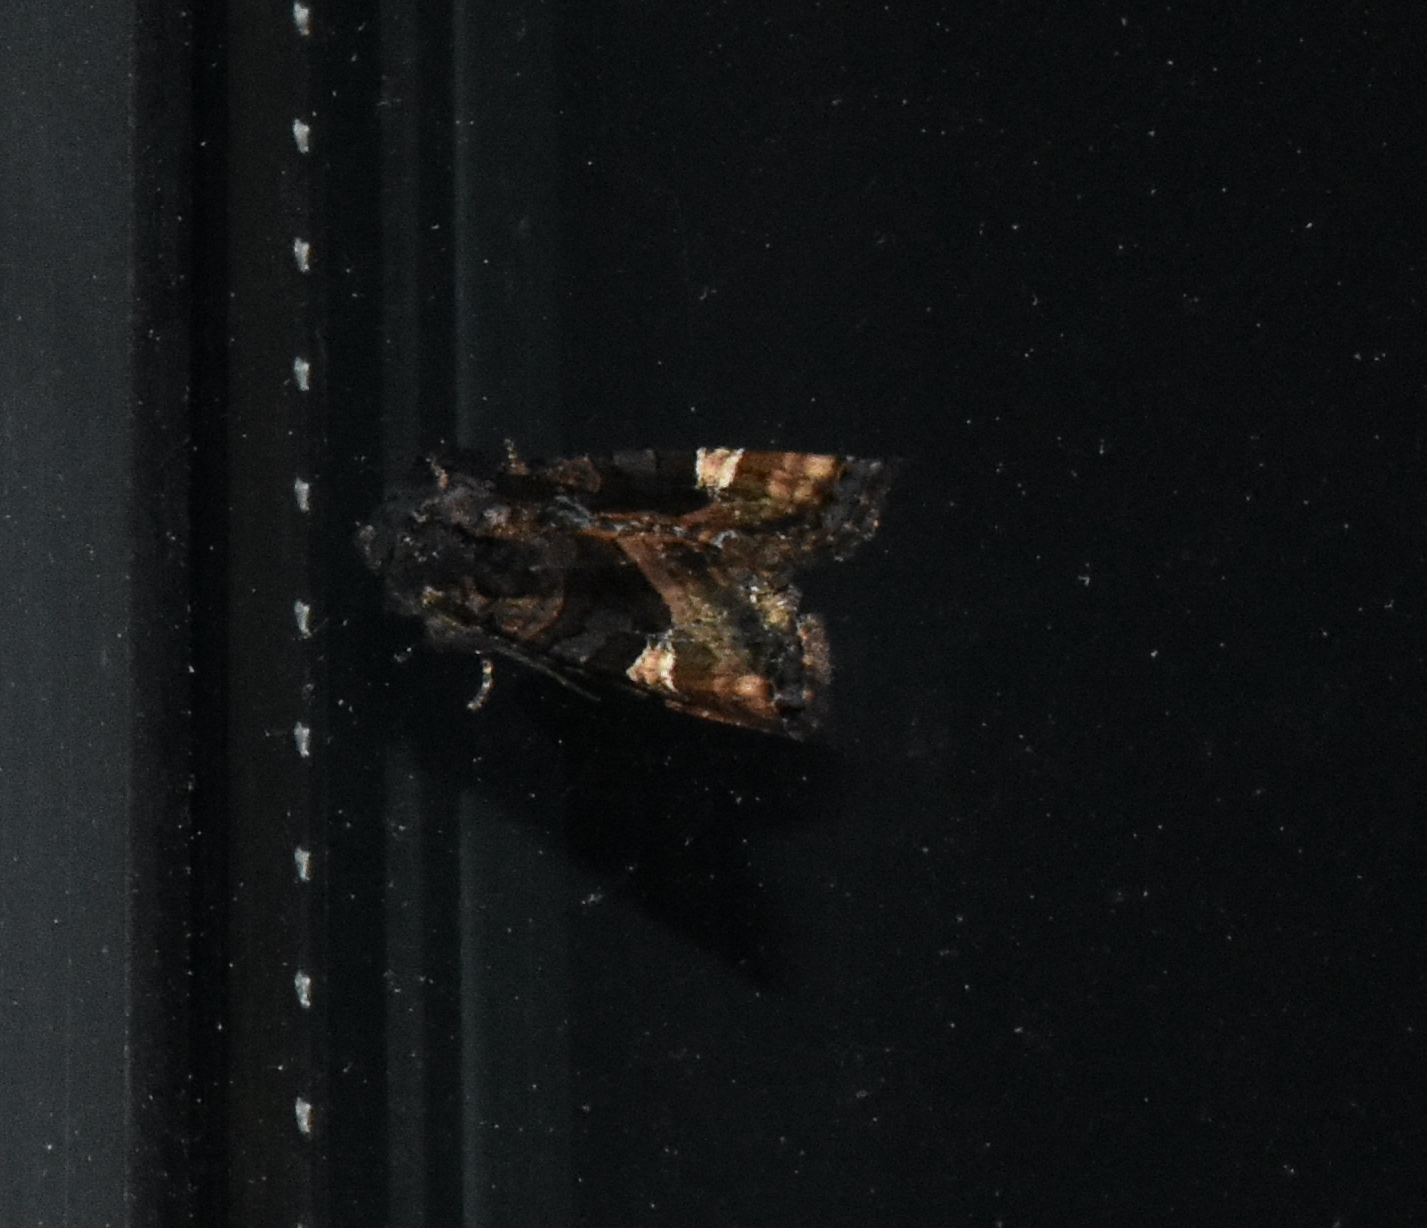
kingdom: Animalia
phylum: Arthropoda
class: Insecta
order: Lepidoptera
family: Noctuidae
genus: Euplexia
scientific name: Euplexia benesimilis
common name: American angle shades
